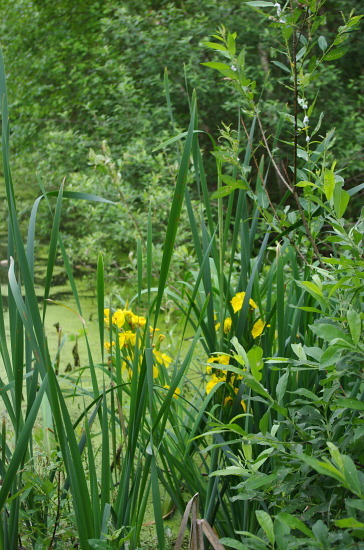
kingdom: Plantae
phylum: Tracheophyta
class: Liliopsida
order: Asparagales
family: Iridaceae
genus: Iris
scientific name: Iris pseudacorus
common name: Yellow flag
